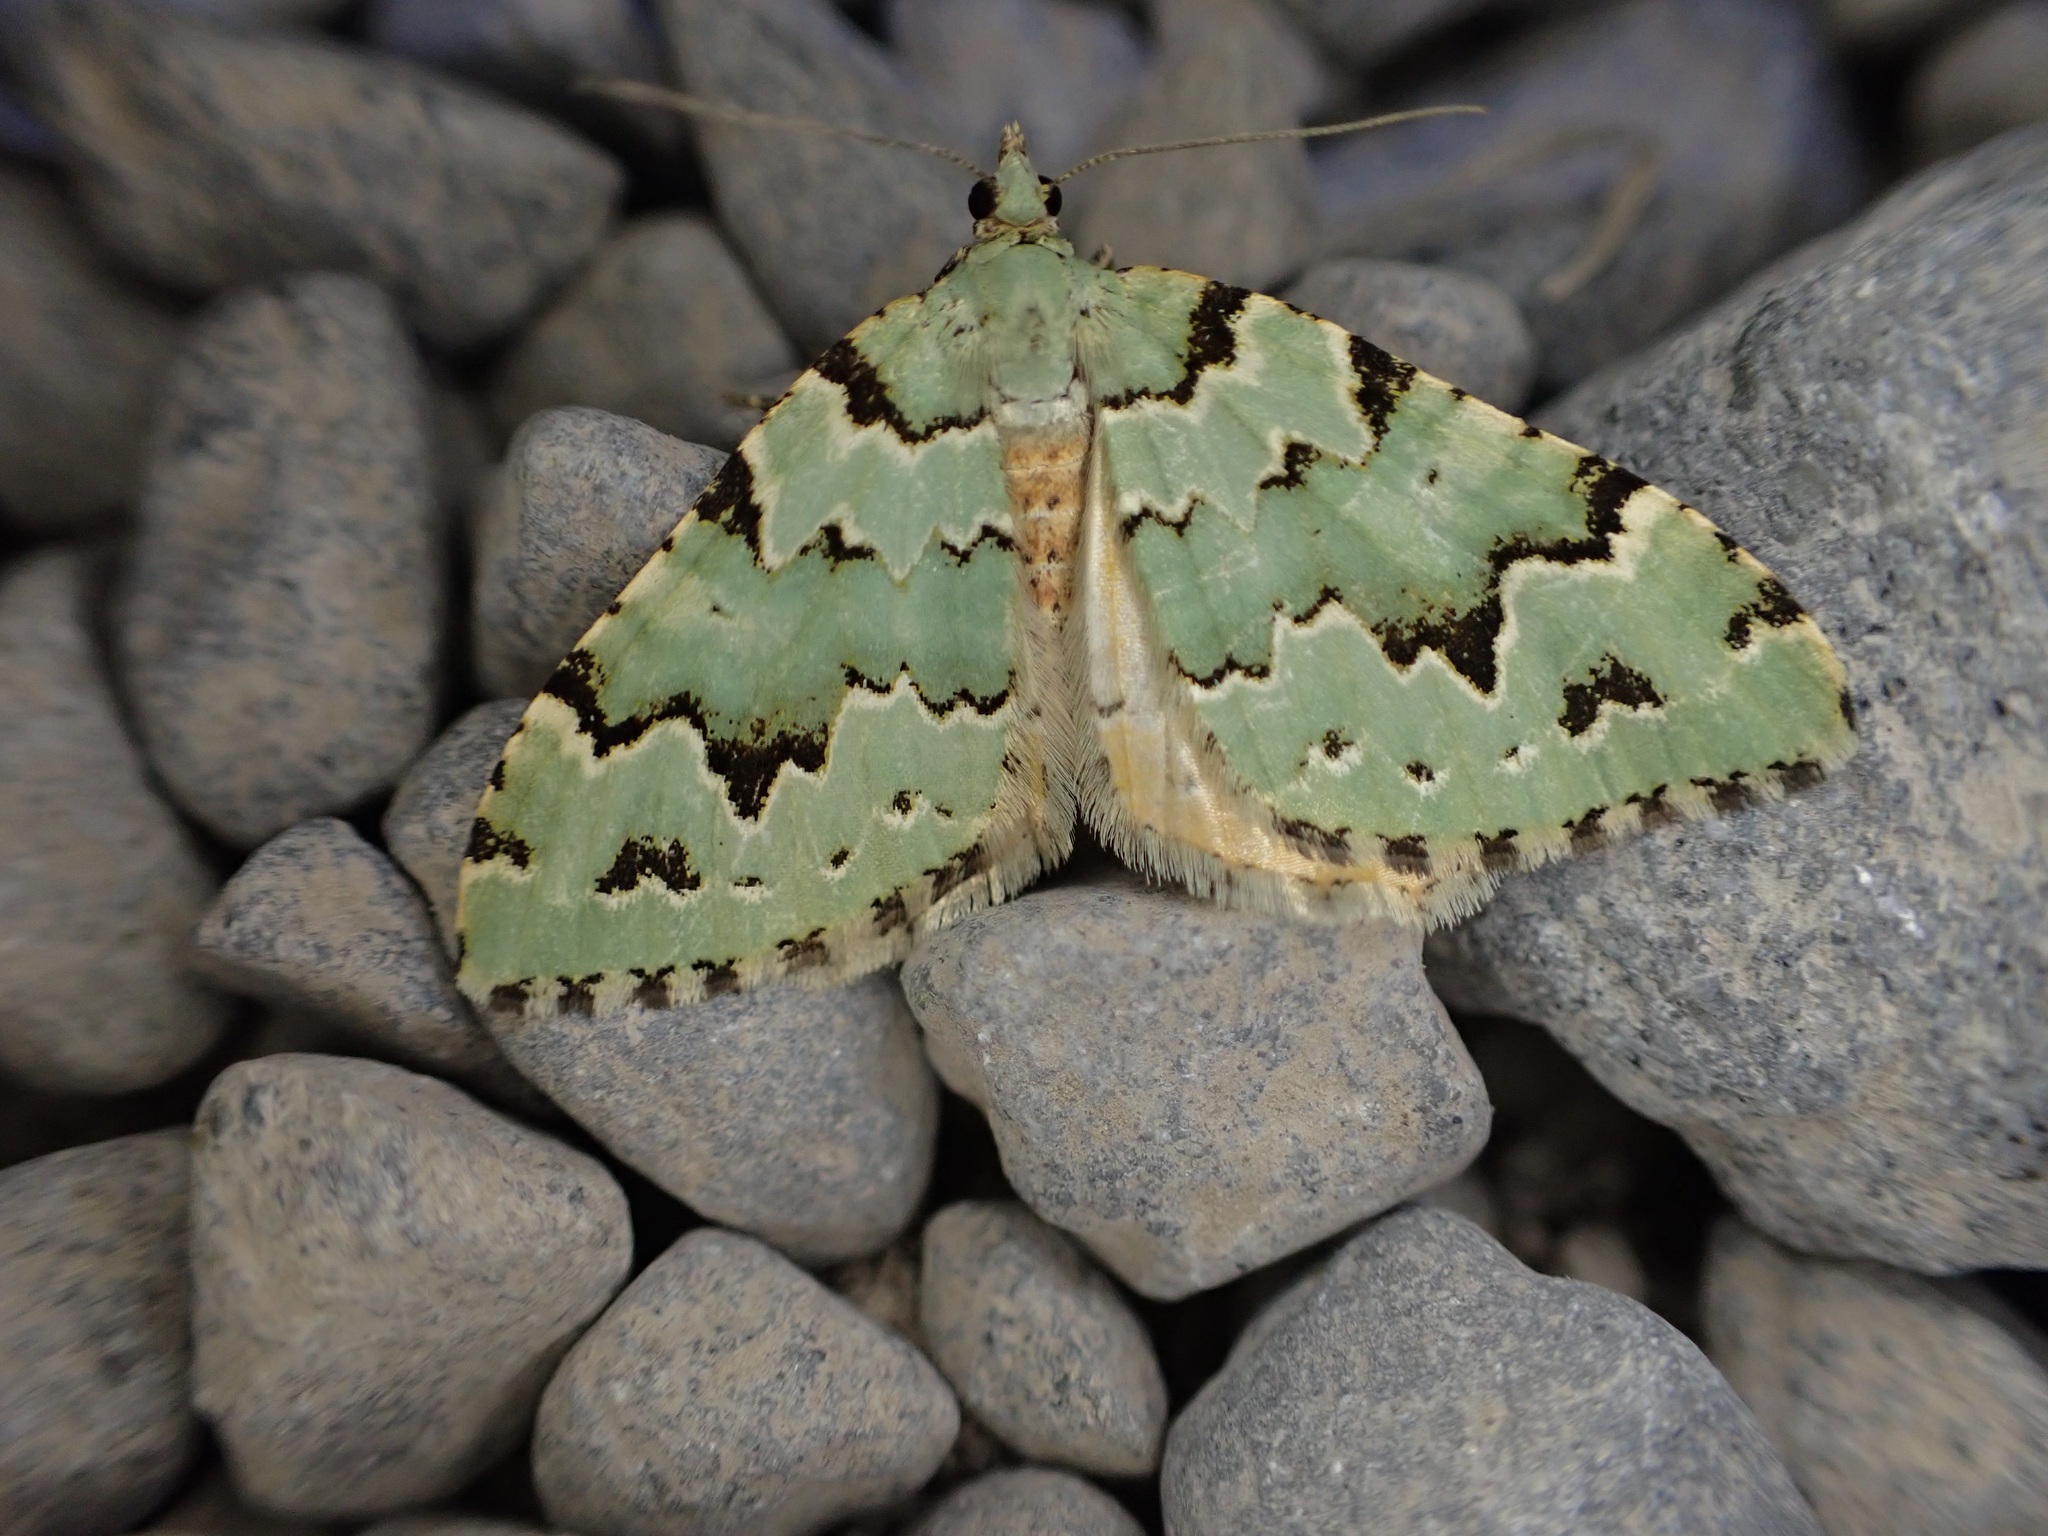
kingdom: Animalia
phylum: Arthropoda
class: Insecta
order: Lepidoptera
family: Geometridae
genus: Asaphodes
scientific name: Asaphodes adonis
